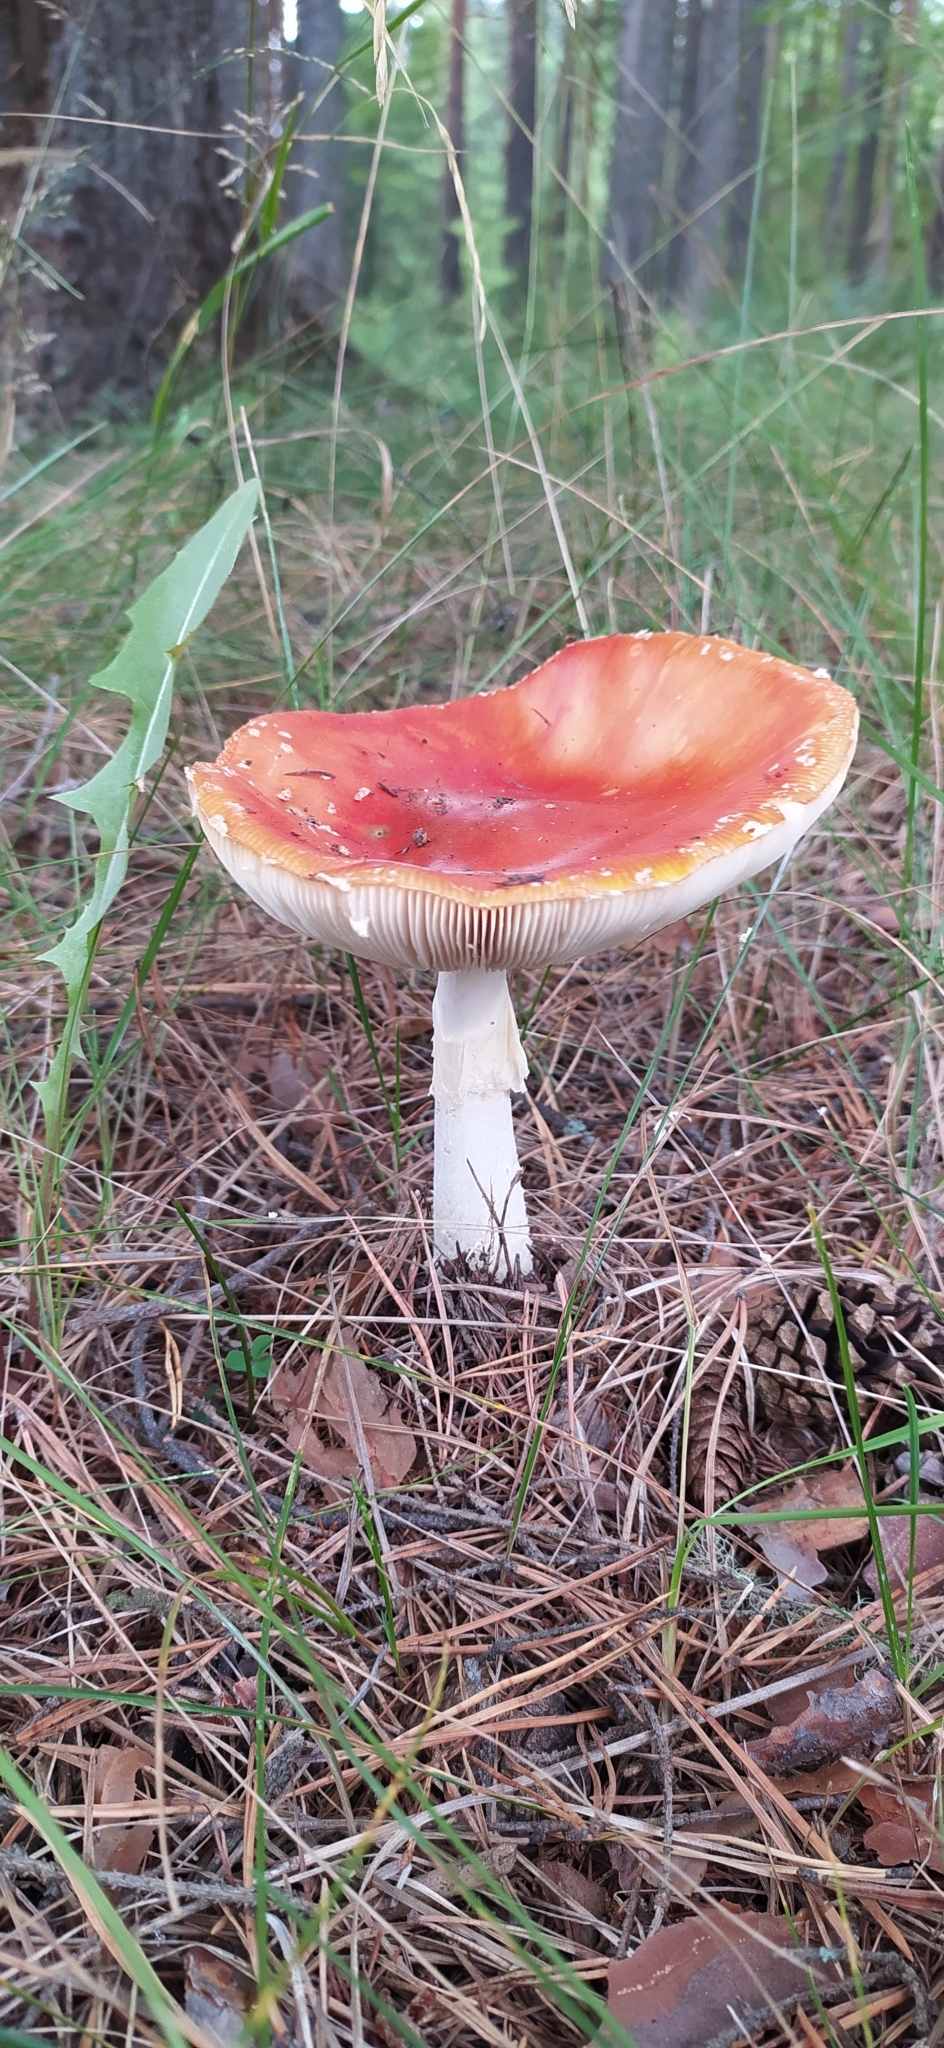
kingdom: Fungi
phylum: Basidiomycota
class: Agaricomycetes
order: Agaricales
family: Amanitaceae
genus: Amanita
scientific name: Amanita muscaria
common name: Fly agaric
